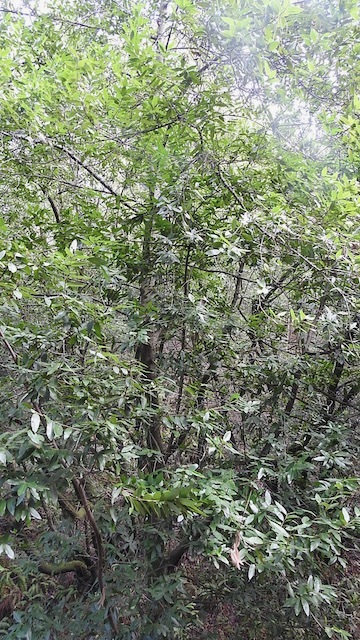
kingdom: Plantae
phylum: Tracheophyta
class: Magnoliopsida
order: Laurales
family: Lauraceae
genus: Umbellularia
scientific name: Umbellularia californica
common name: California bay
